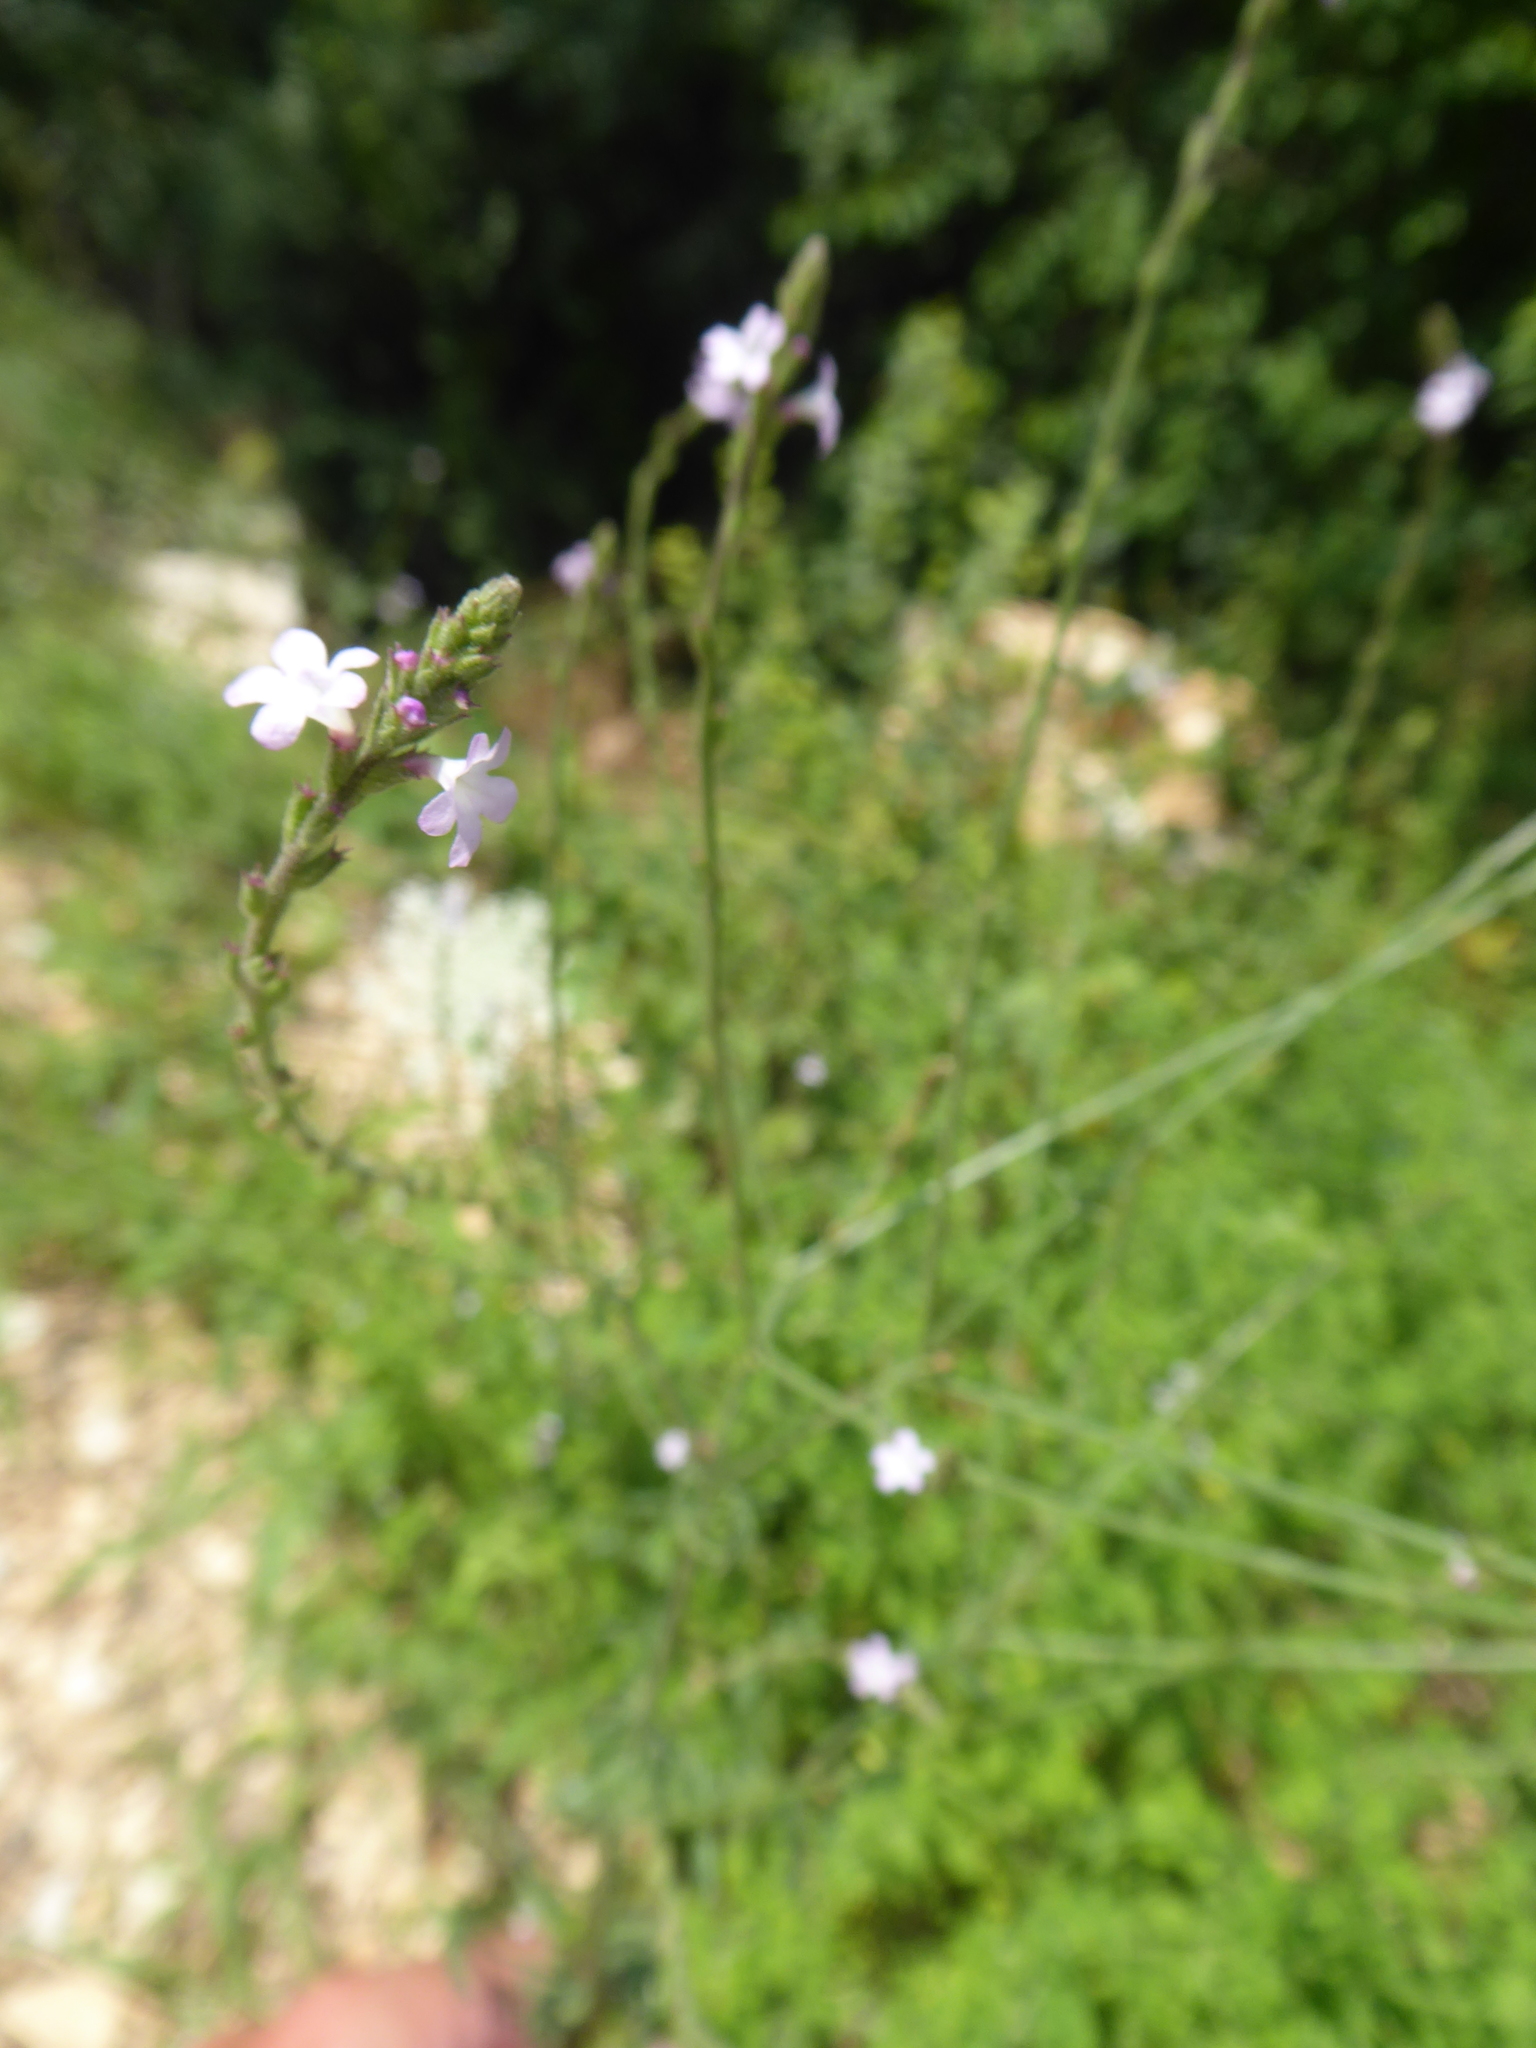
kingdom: Plantae
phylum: Tracheophyta
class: Magnoliopsida
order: Lamiales
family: Verbenaceae
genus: Verbena
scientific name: Verbena officinalis
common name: Vervain
